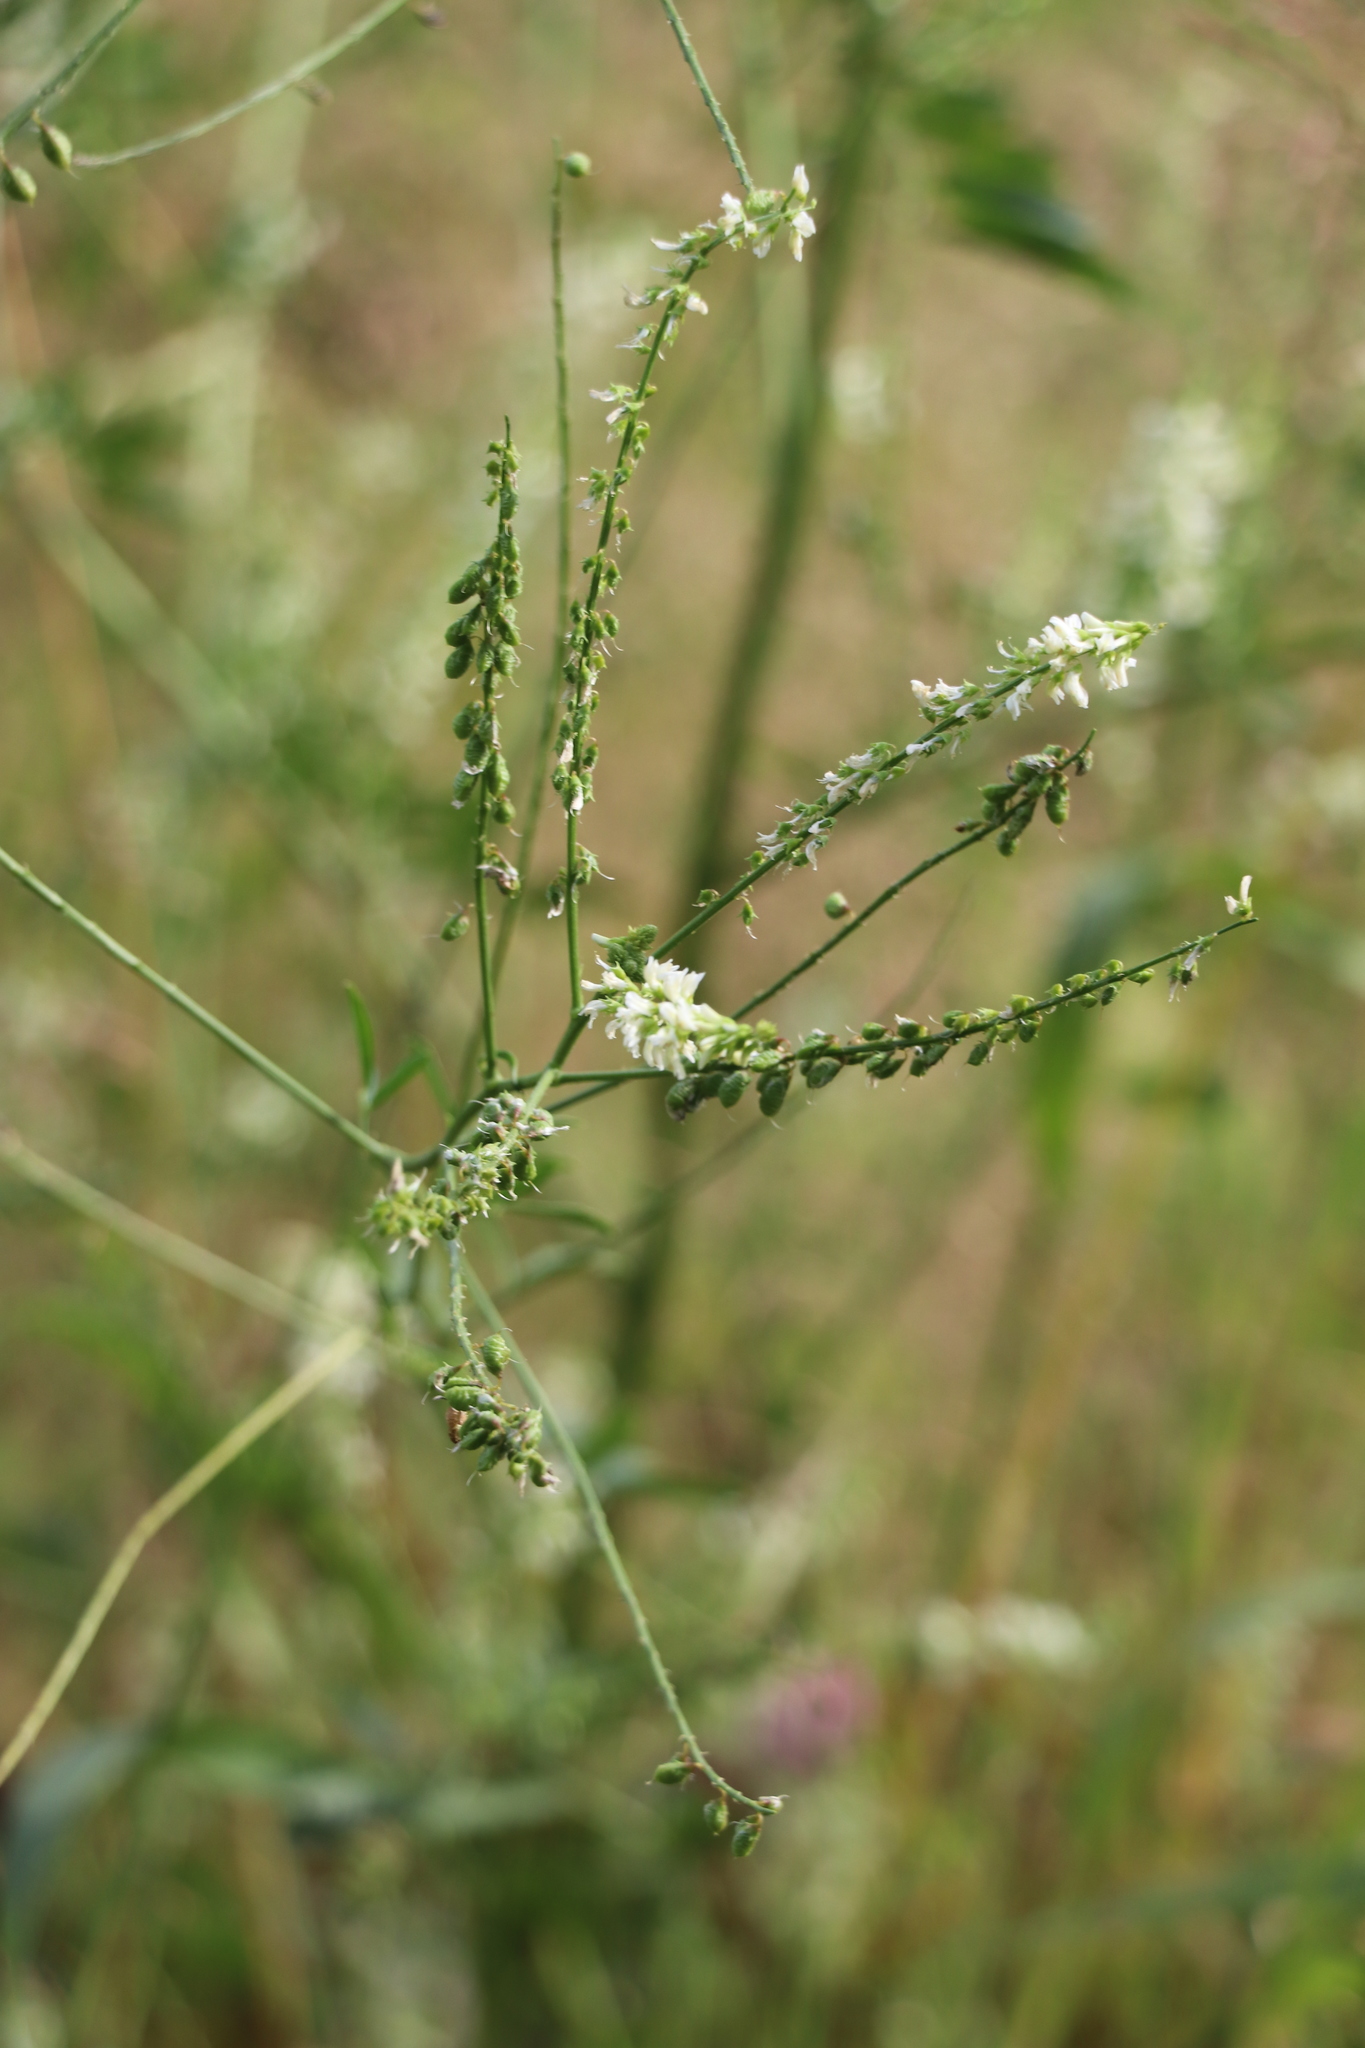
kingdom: Plantae
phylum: Tracheophyta
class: Magnoliopsida
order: Fabales
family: Fabaceae
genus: Melilotus
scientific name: Melilotus albus
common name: White melilot
